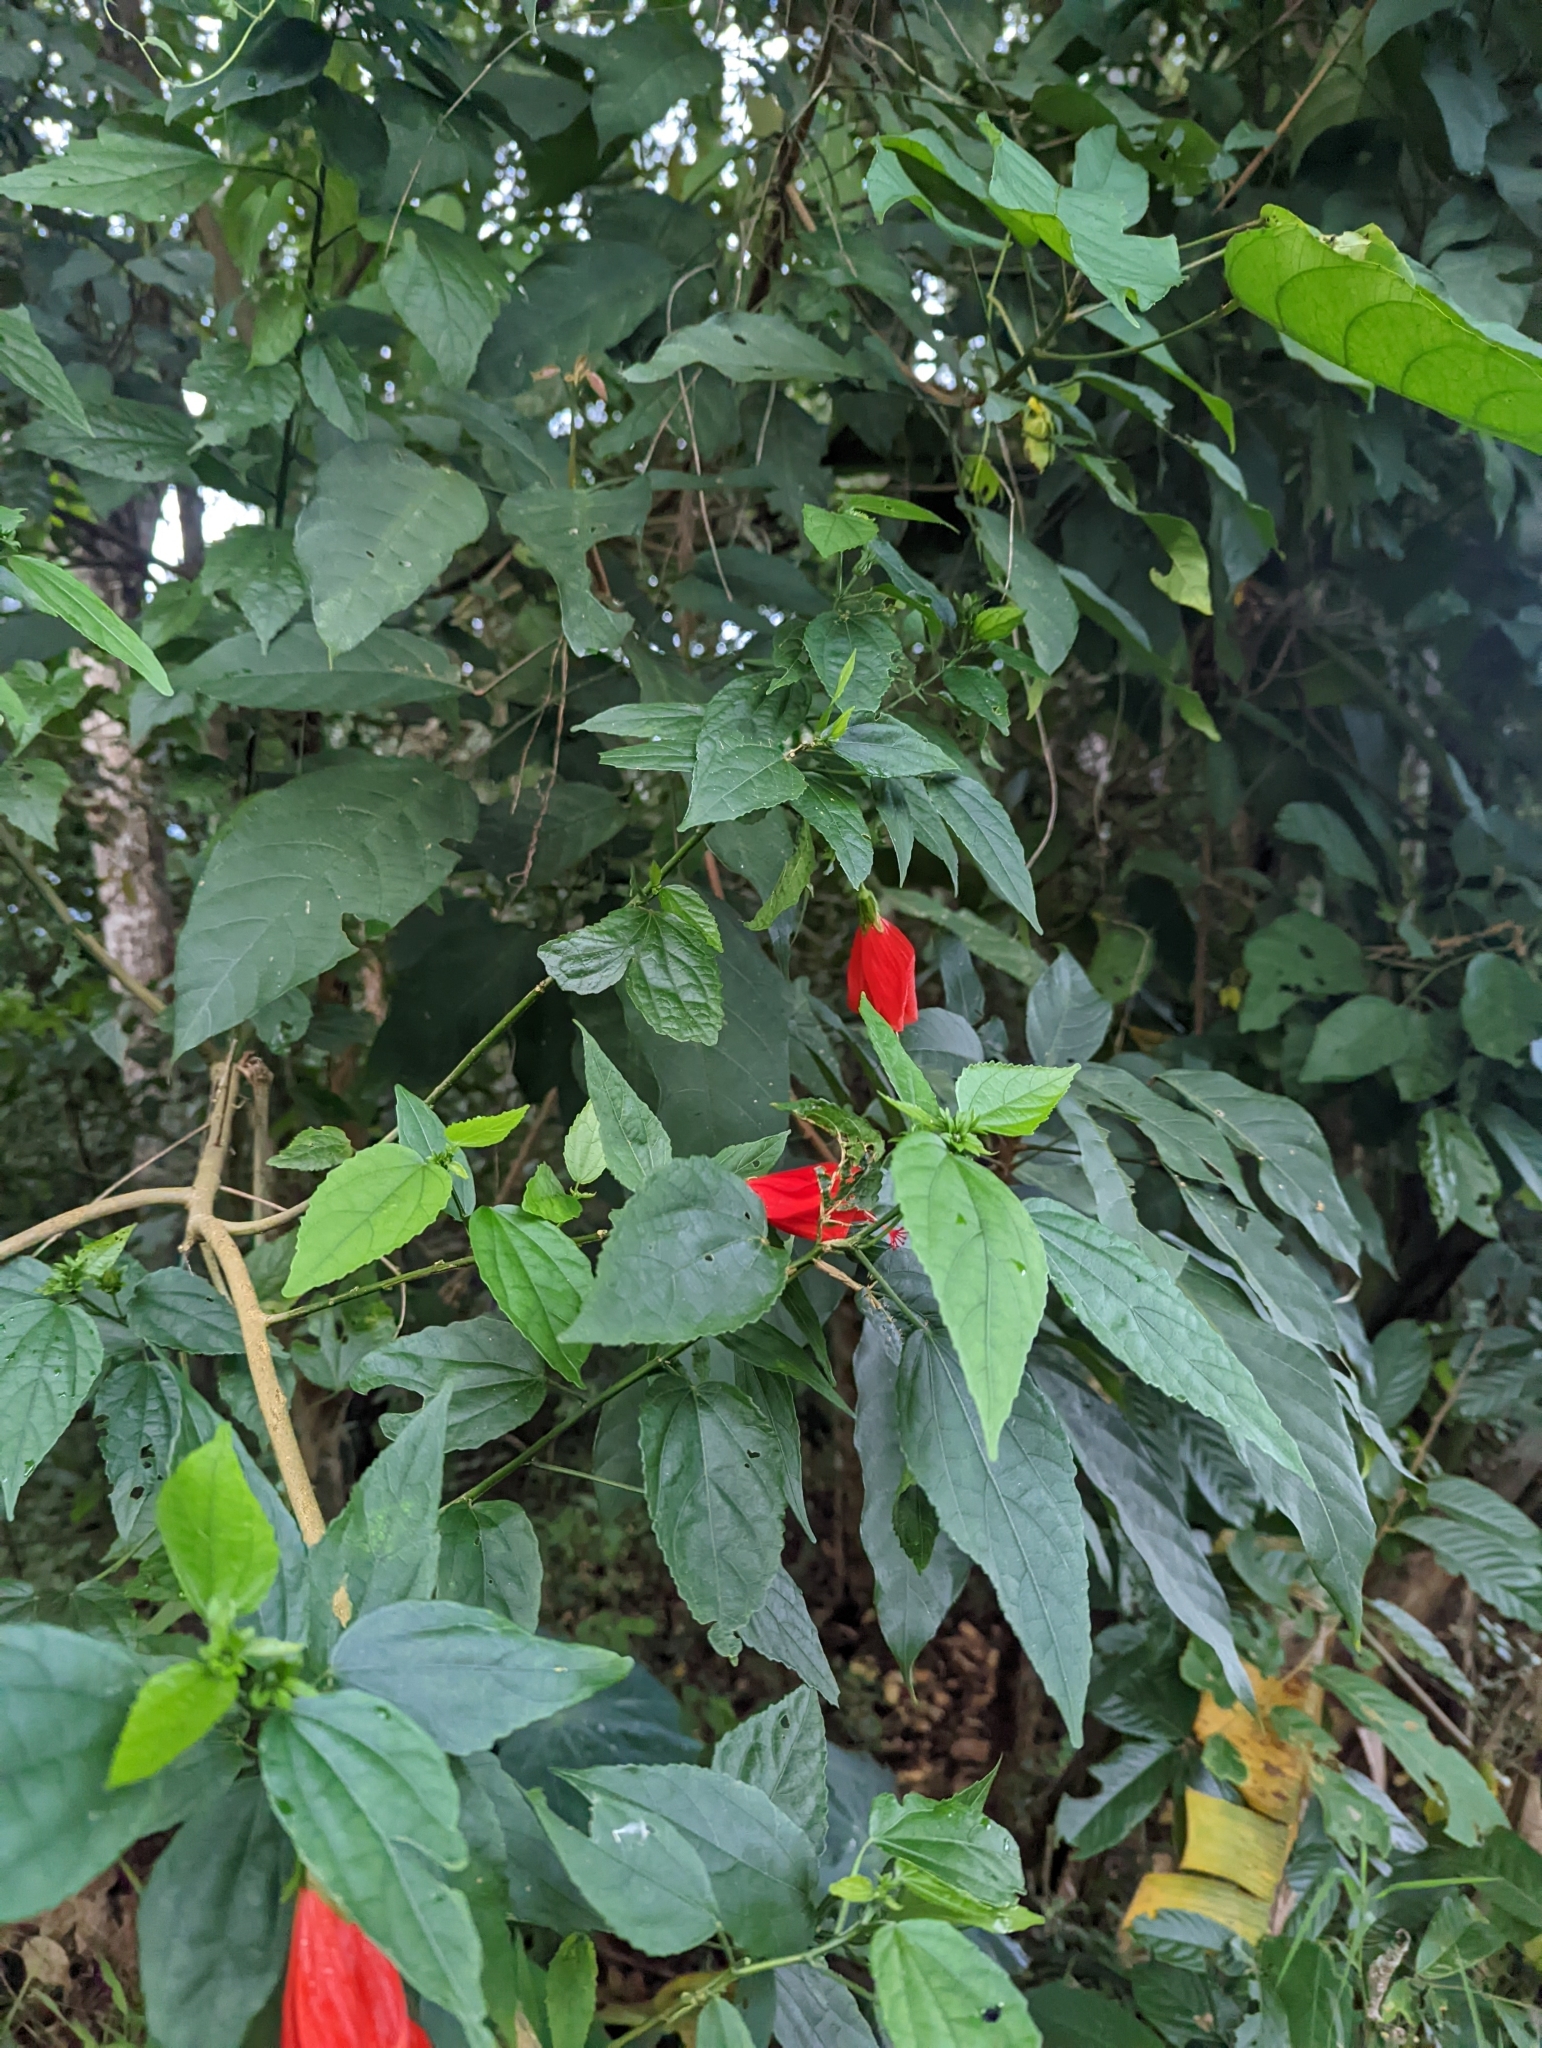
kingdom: Plantae
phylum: Tracheophyta
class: Magnoliopsida
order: Malvales
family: Malvaceae
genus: Malvaviscus
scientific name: Malvaviscus penduliflorus
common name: Mazapan
